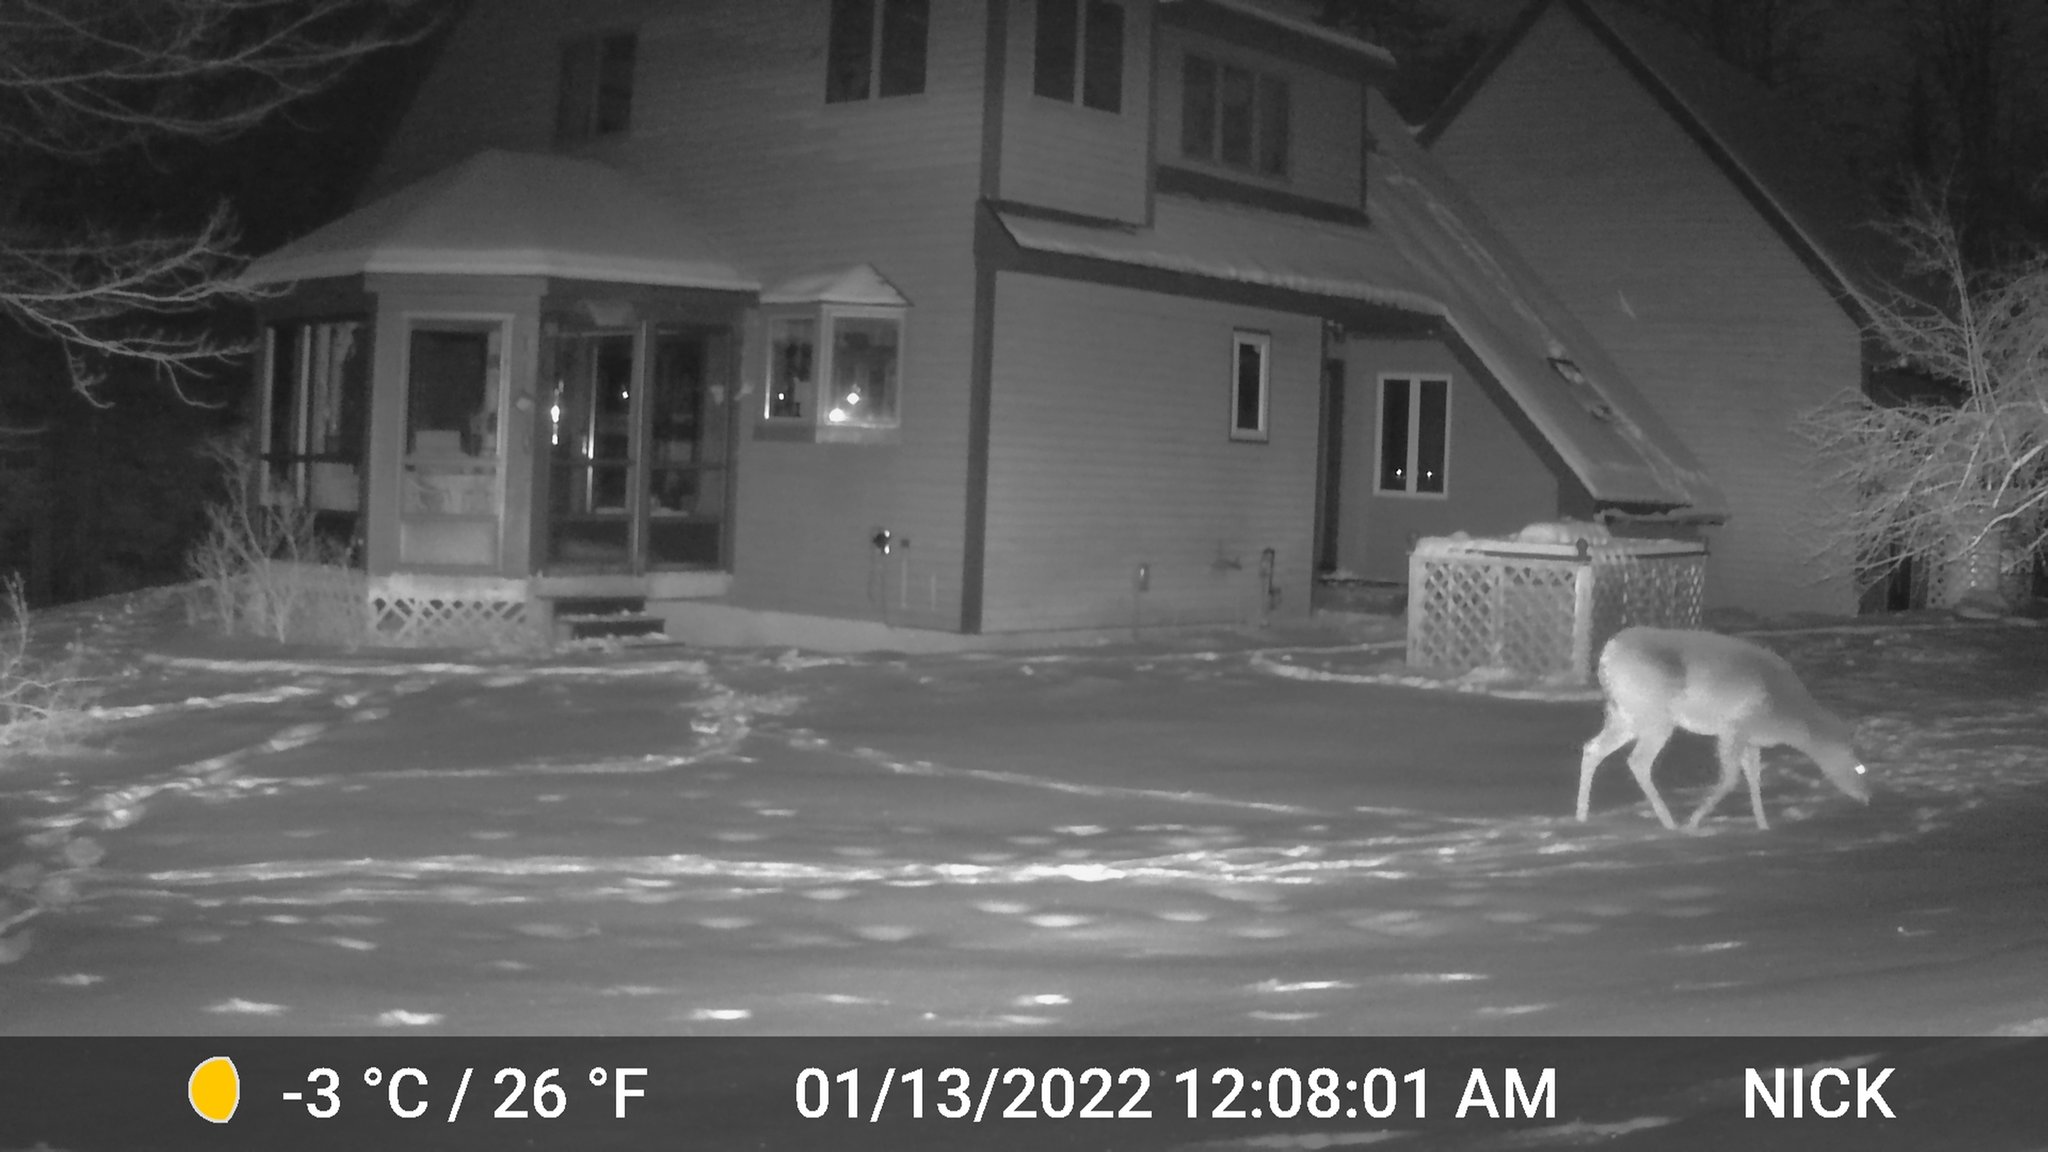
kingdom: Animalia
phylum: Chordata
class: Mammalia
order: Artiodactyla
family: Cervidae
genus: Odocoileus
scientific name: Odocoileus virginianus
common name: White-tailed deer
